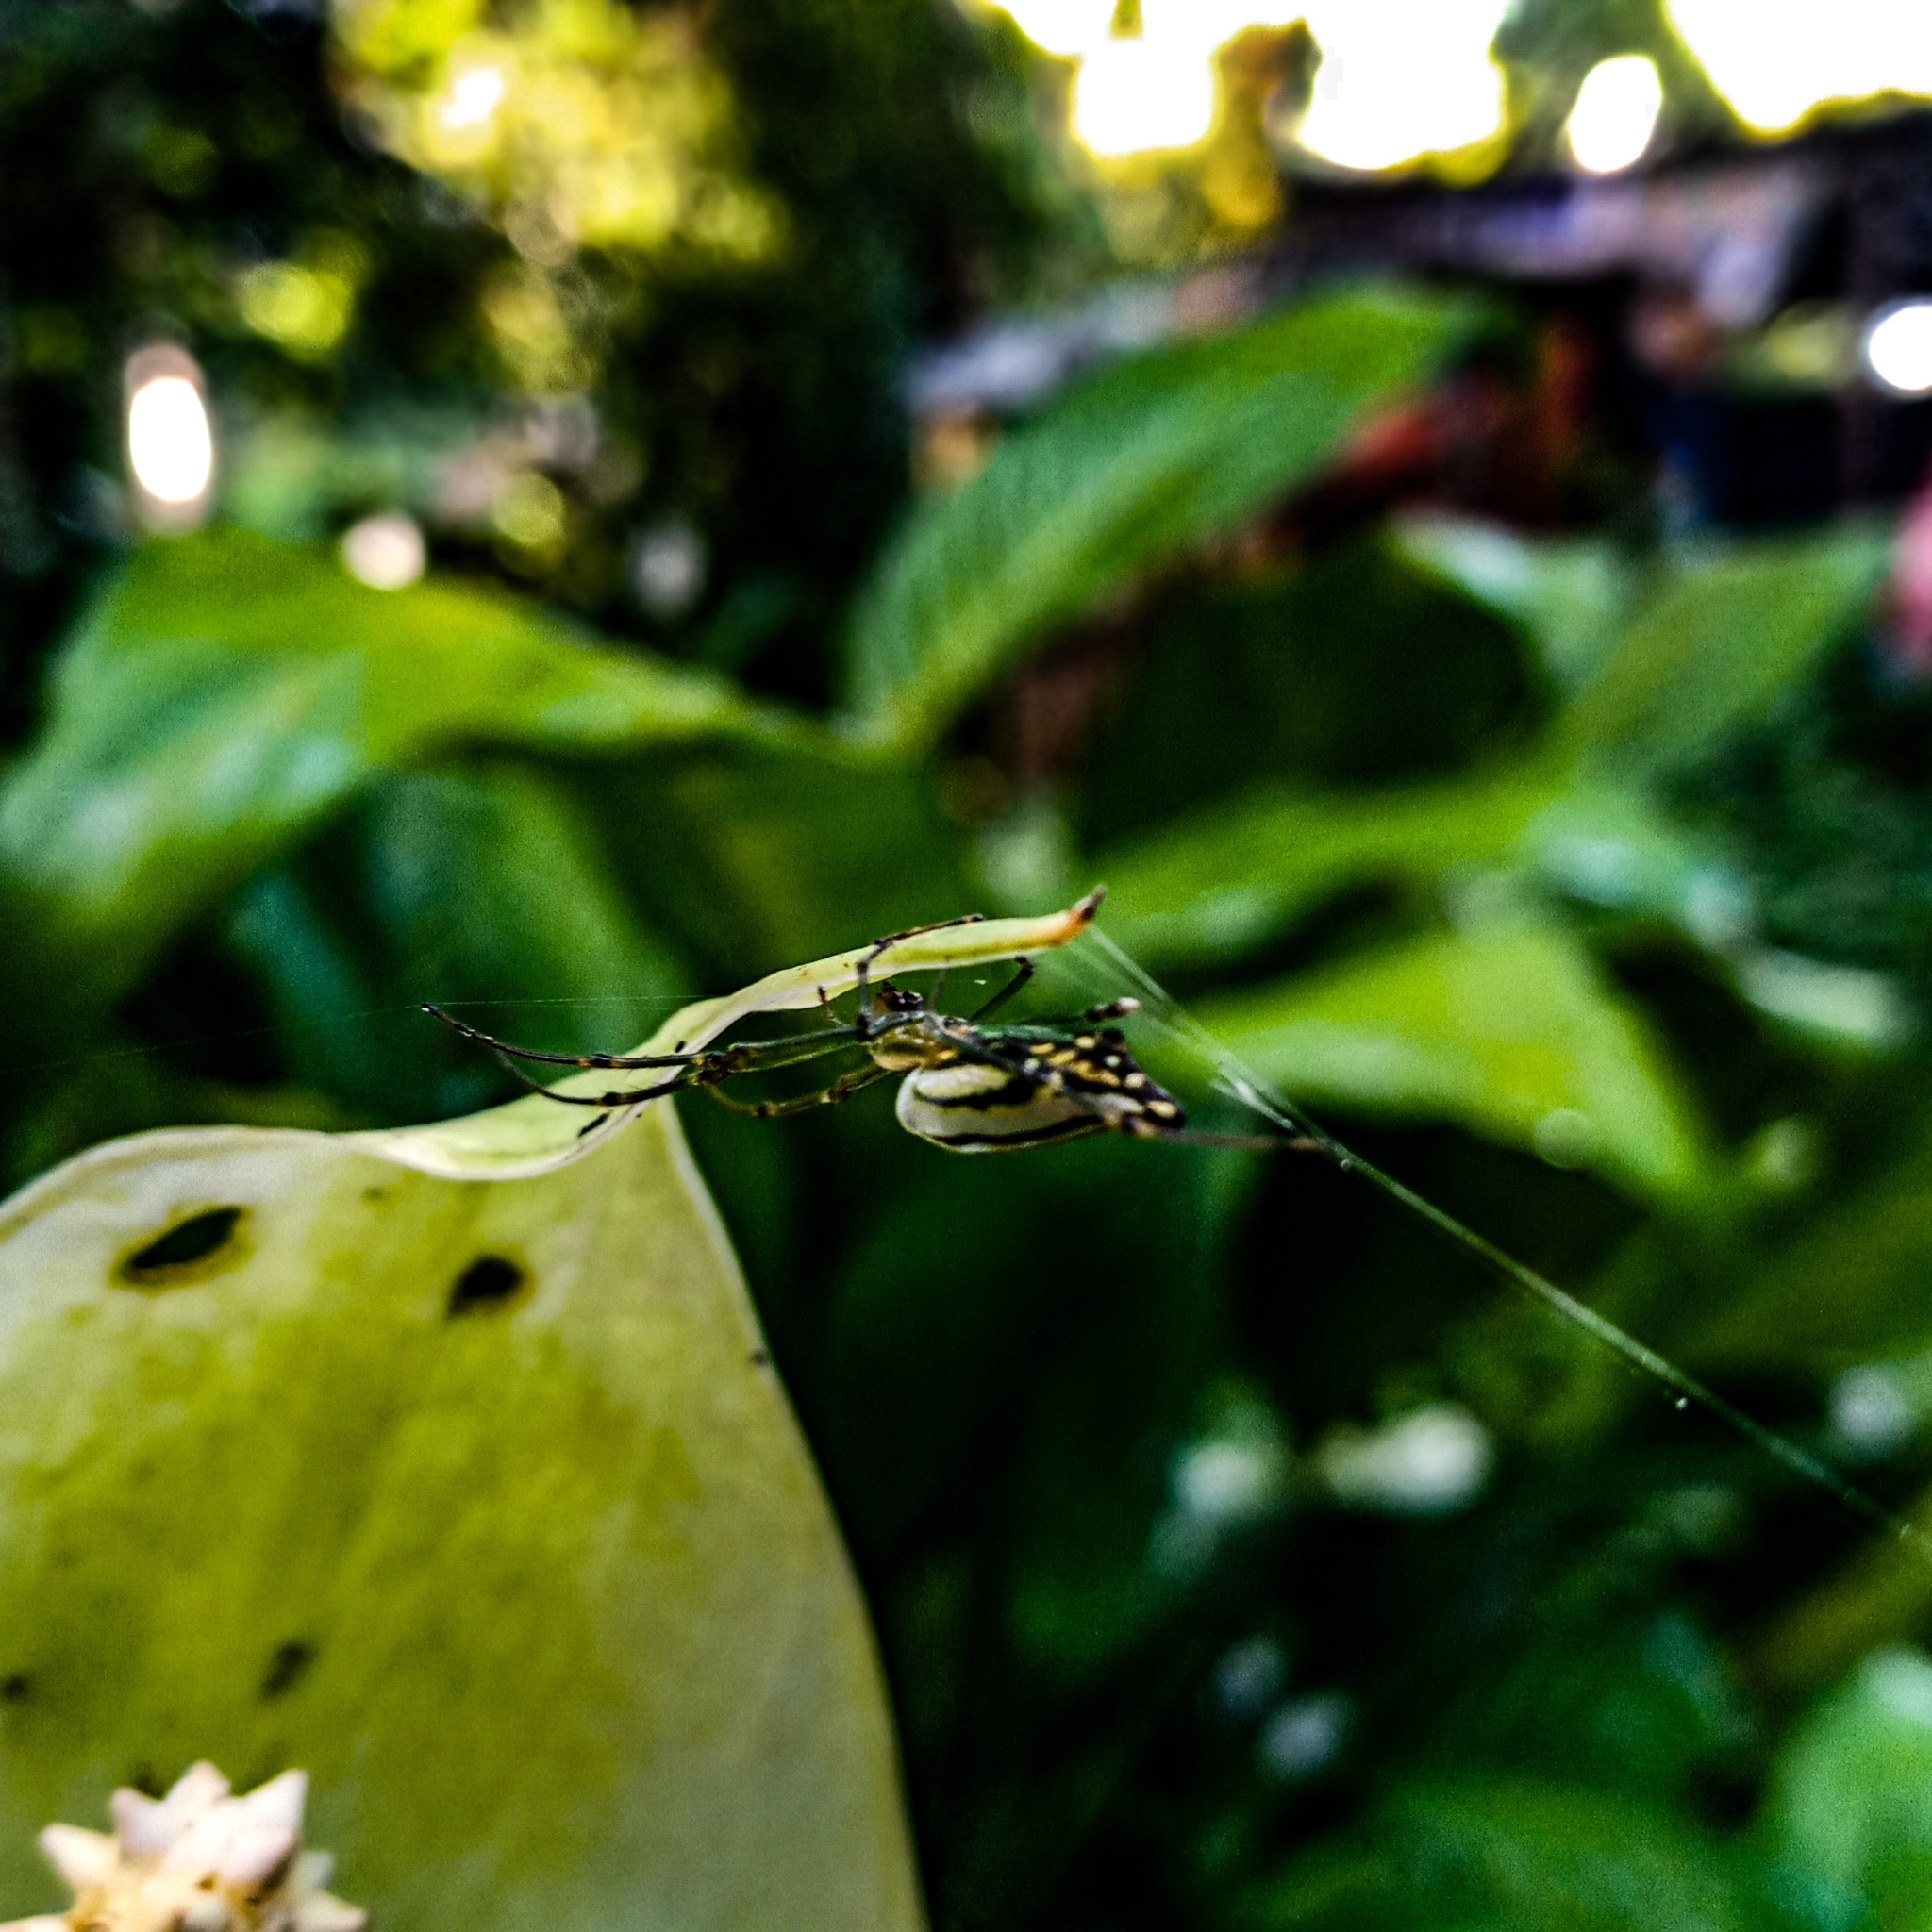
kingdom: Animalia
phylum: Arthropoda
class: Arachnida
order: Araneae
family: Tetragnathidae
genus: Leucauge
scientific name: Leucauge decorata
